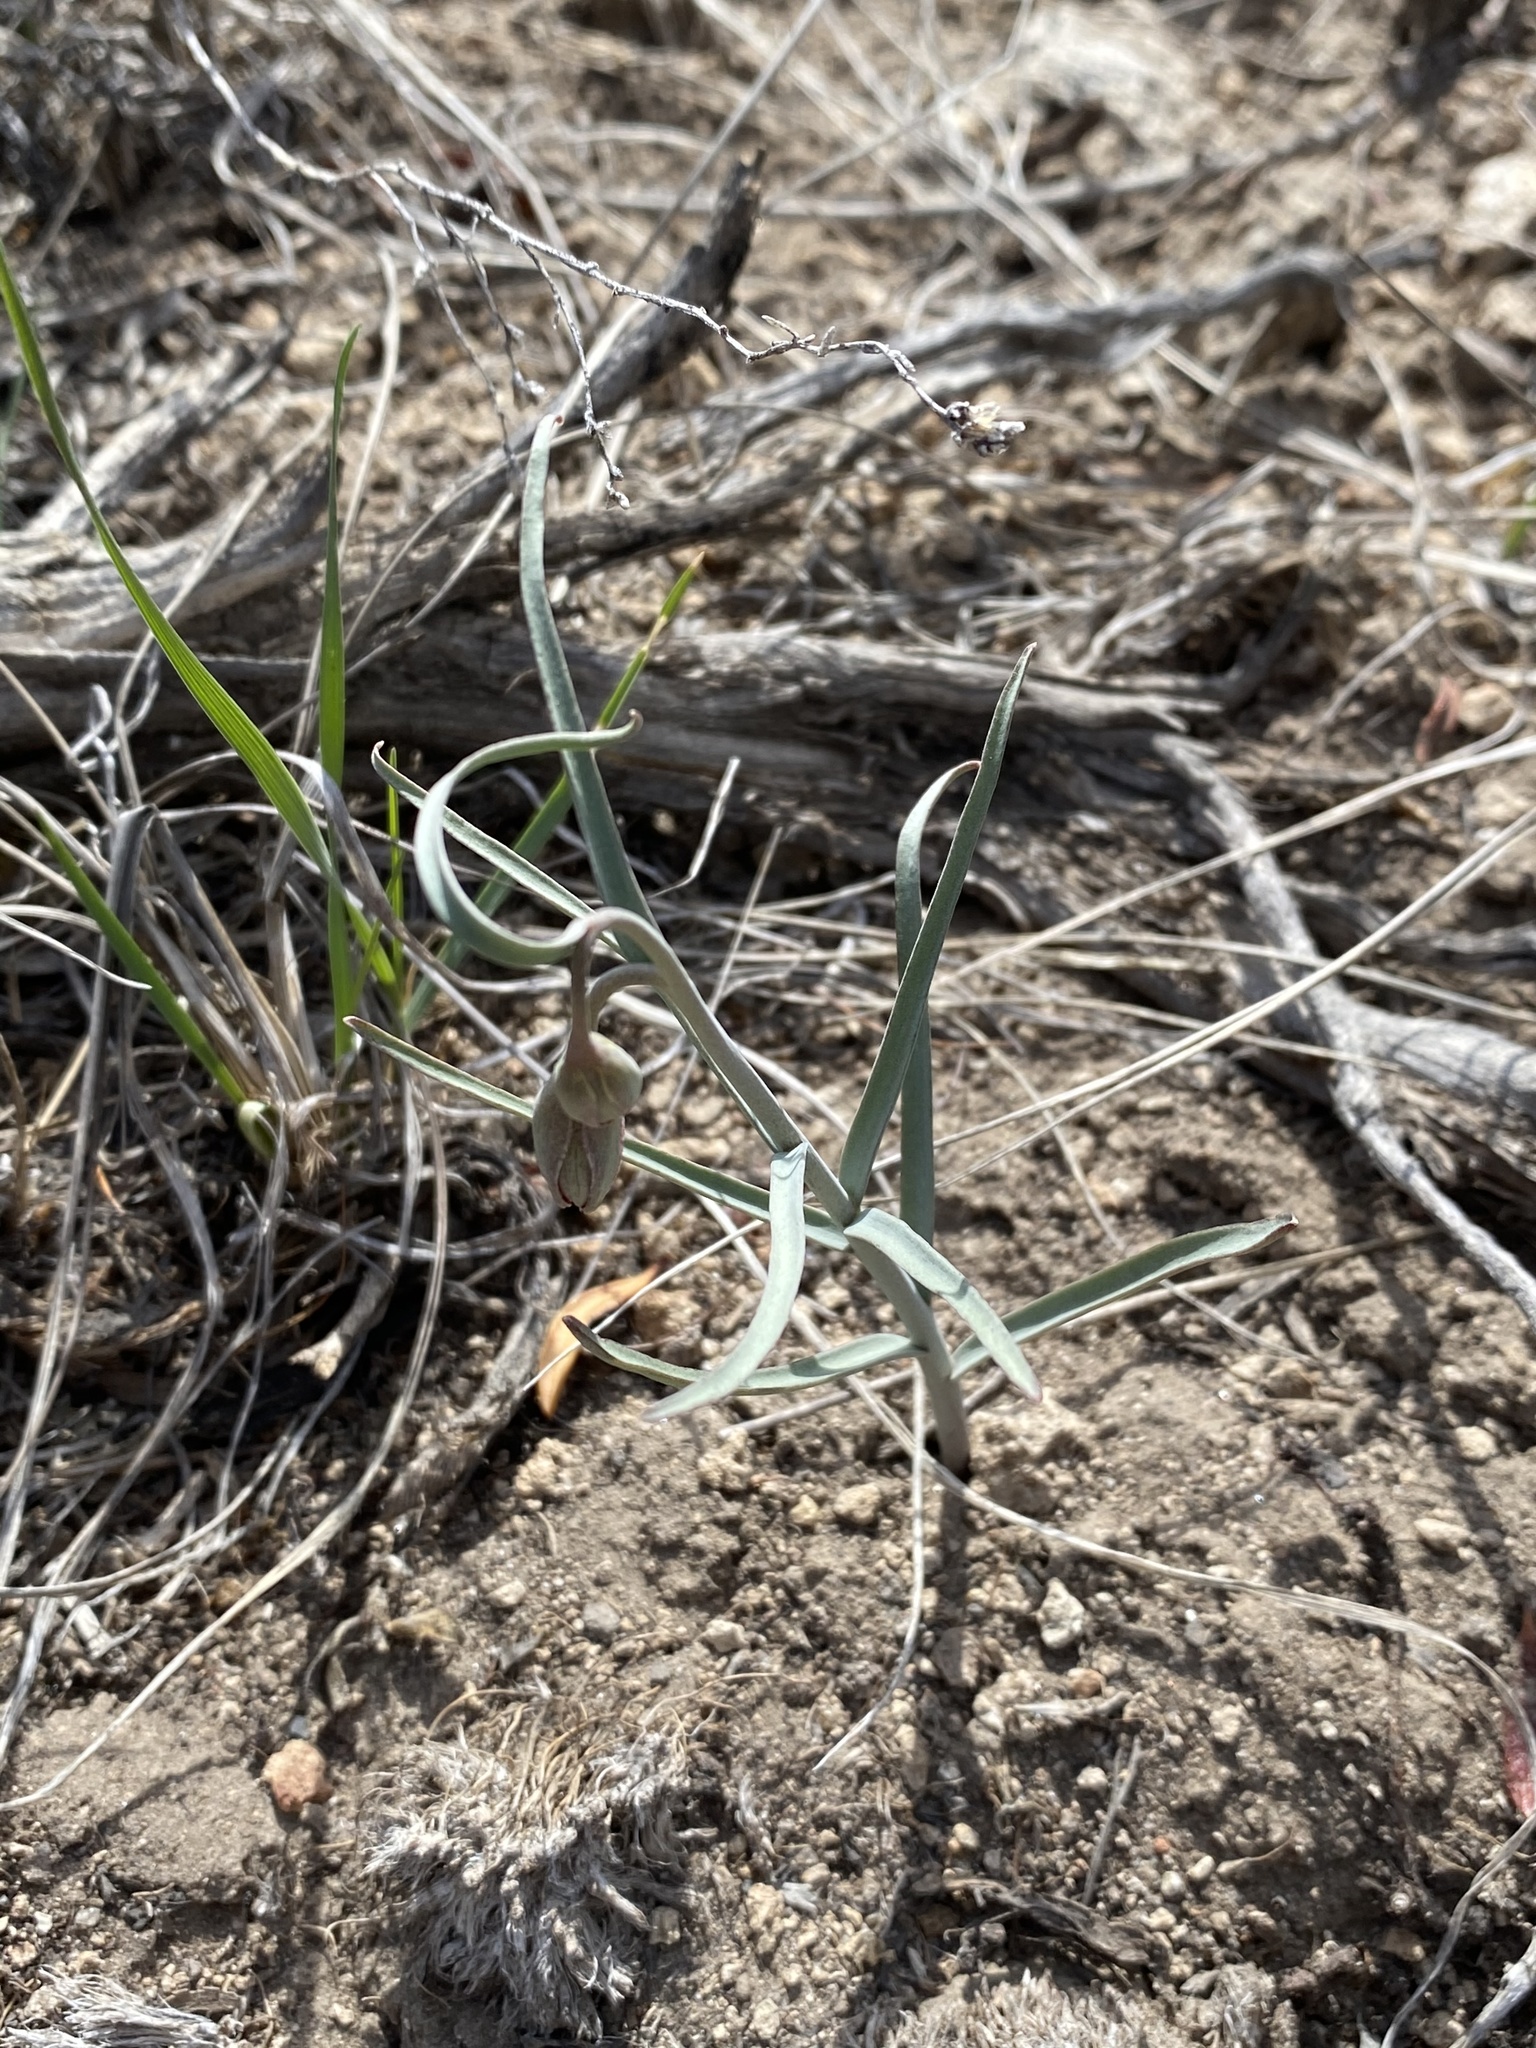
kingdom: Plantae
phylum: Tracheophyta
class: Liliopsida
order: Liliales
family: Liliaceae
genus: Fritillaria
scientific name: Fritillaria atropurpurea
